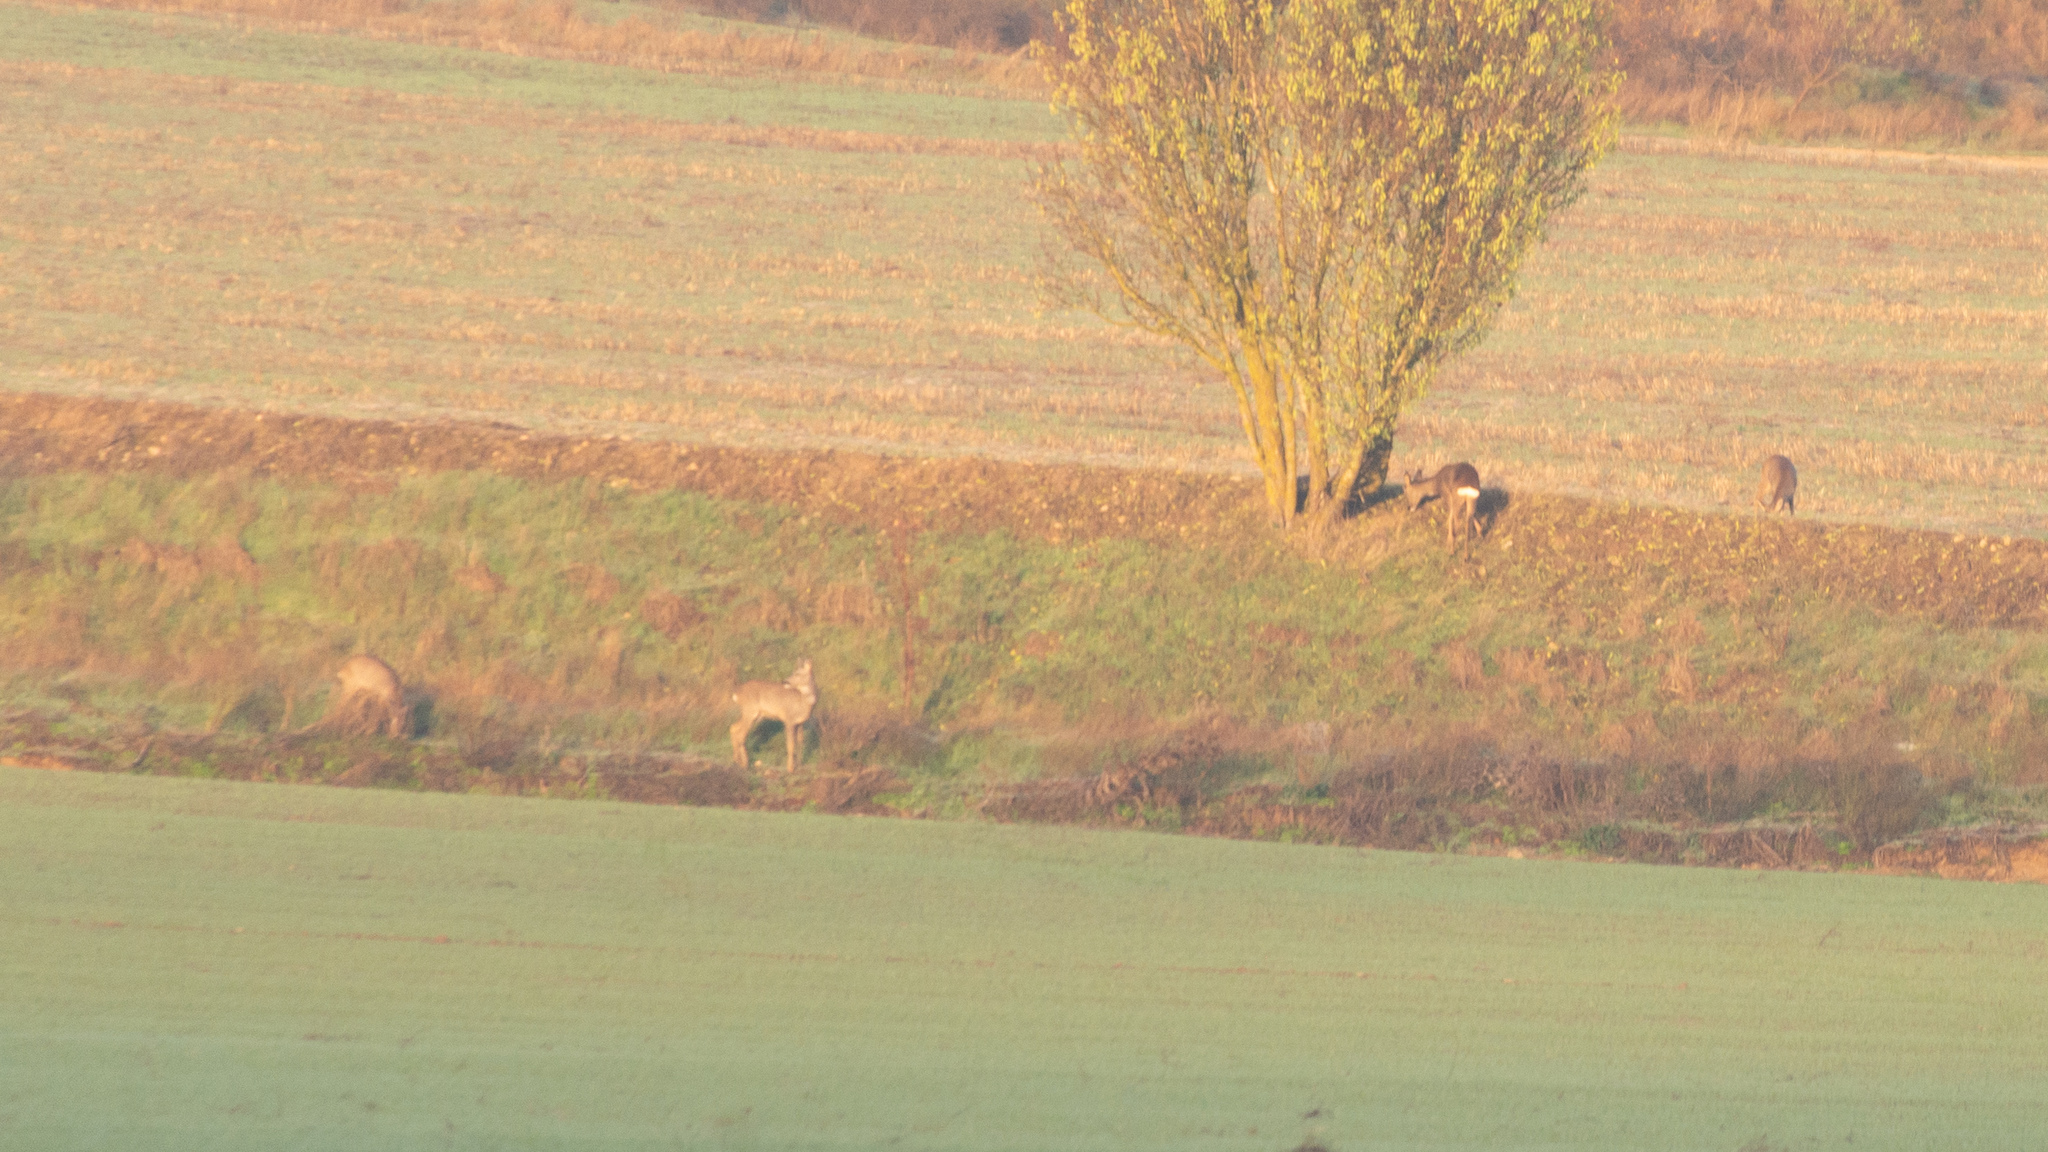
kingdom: Animalia
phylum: Chordata
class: Mammalia
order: Artiodactyla
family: Cervidae
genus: Capreolus
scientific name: Capreolus capreolus
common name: Western roe deer
